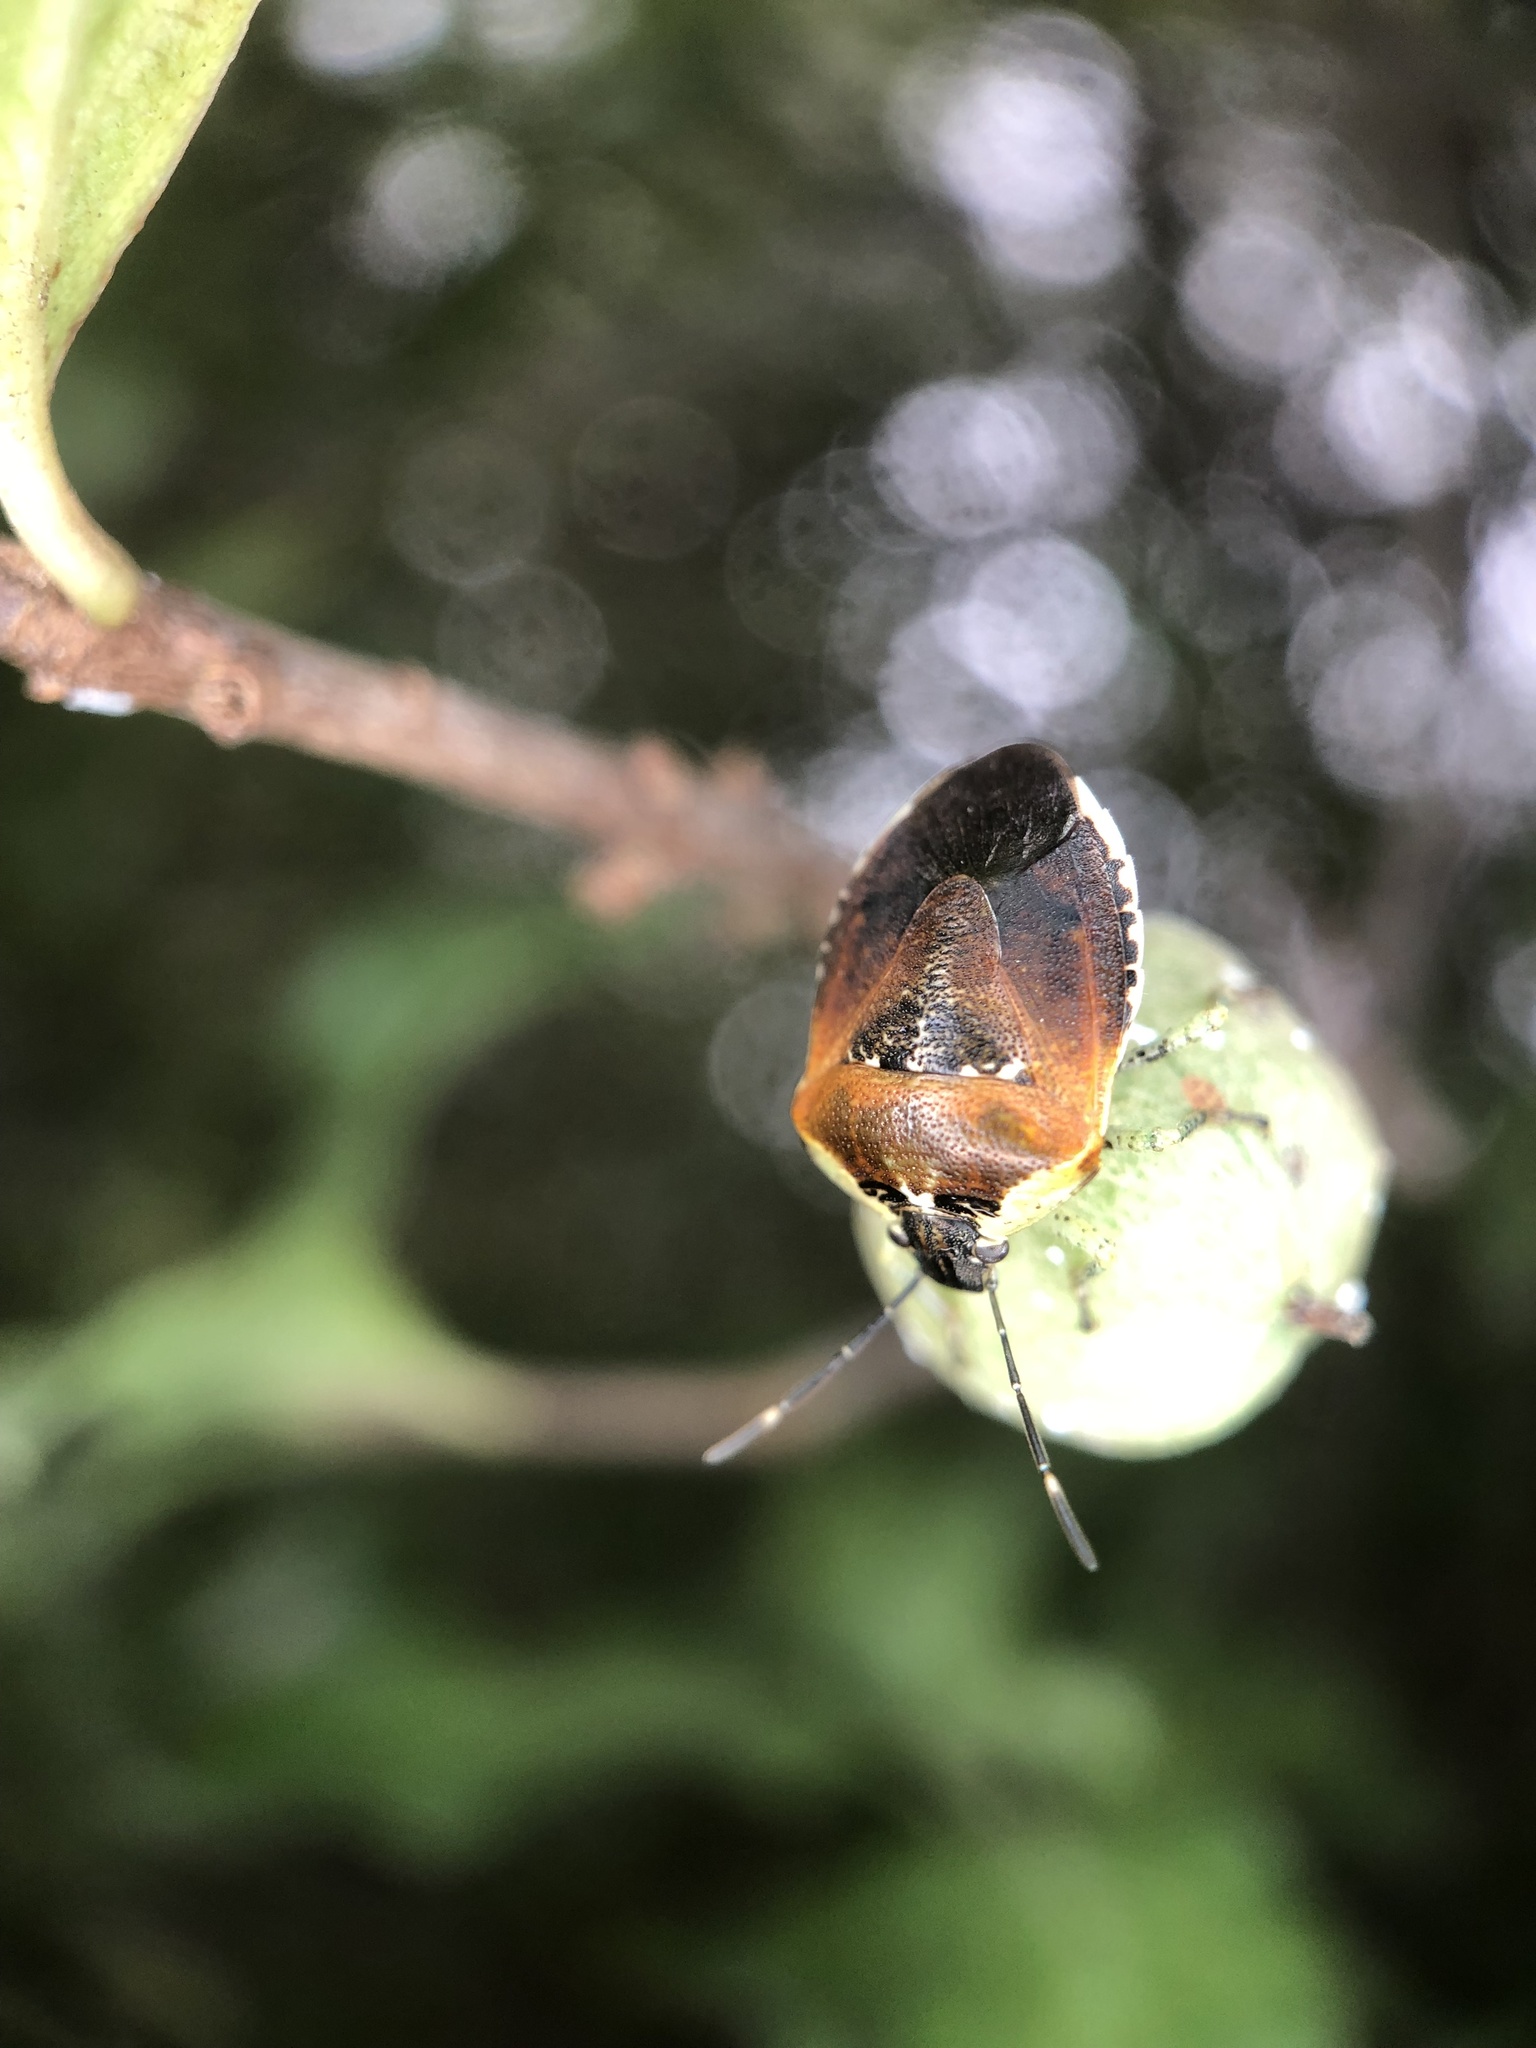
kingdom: Animalia
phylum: Arthropoda
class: Insecta
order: Hemiptera
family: Pentatomidae
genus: Monteithiella
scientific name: Monteithiella
